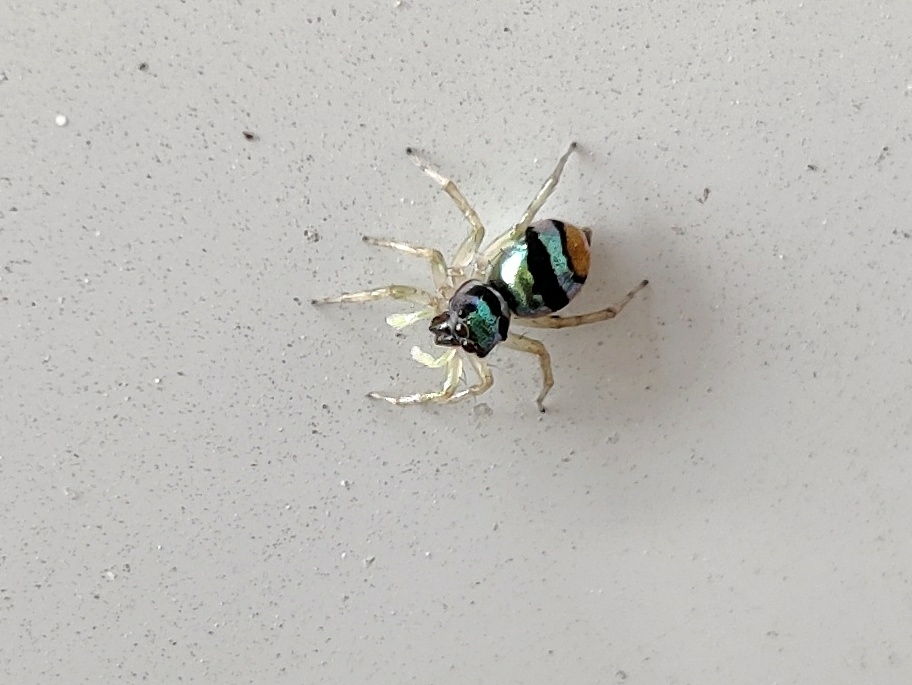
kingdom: Animalia
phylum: Arthropoda
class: Arachnida
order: Araneae
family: Salticidae
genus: Phintella
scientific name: Phintella vittata
